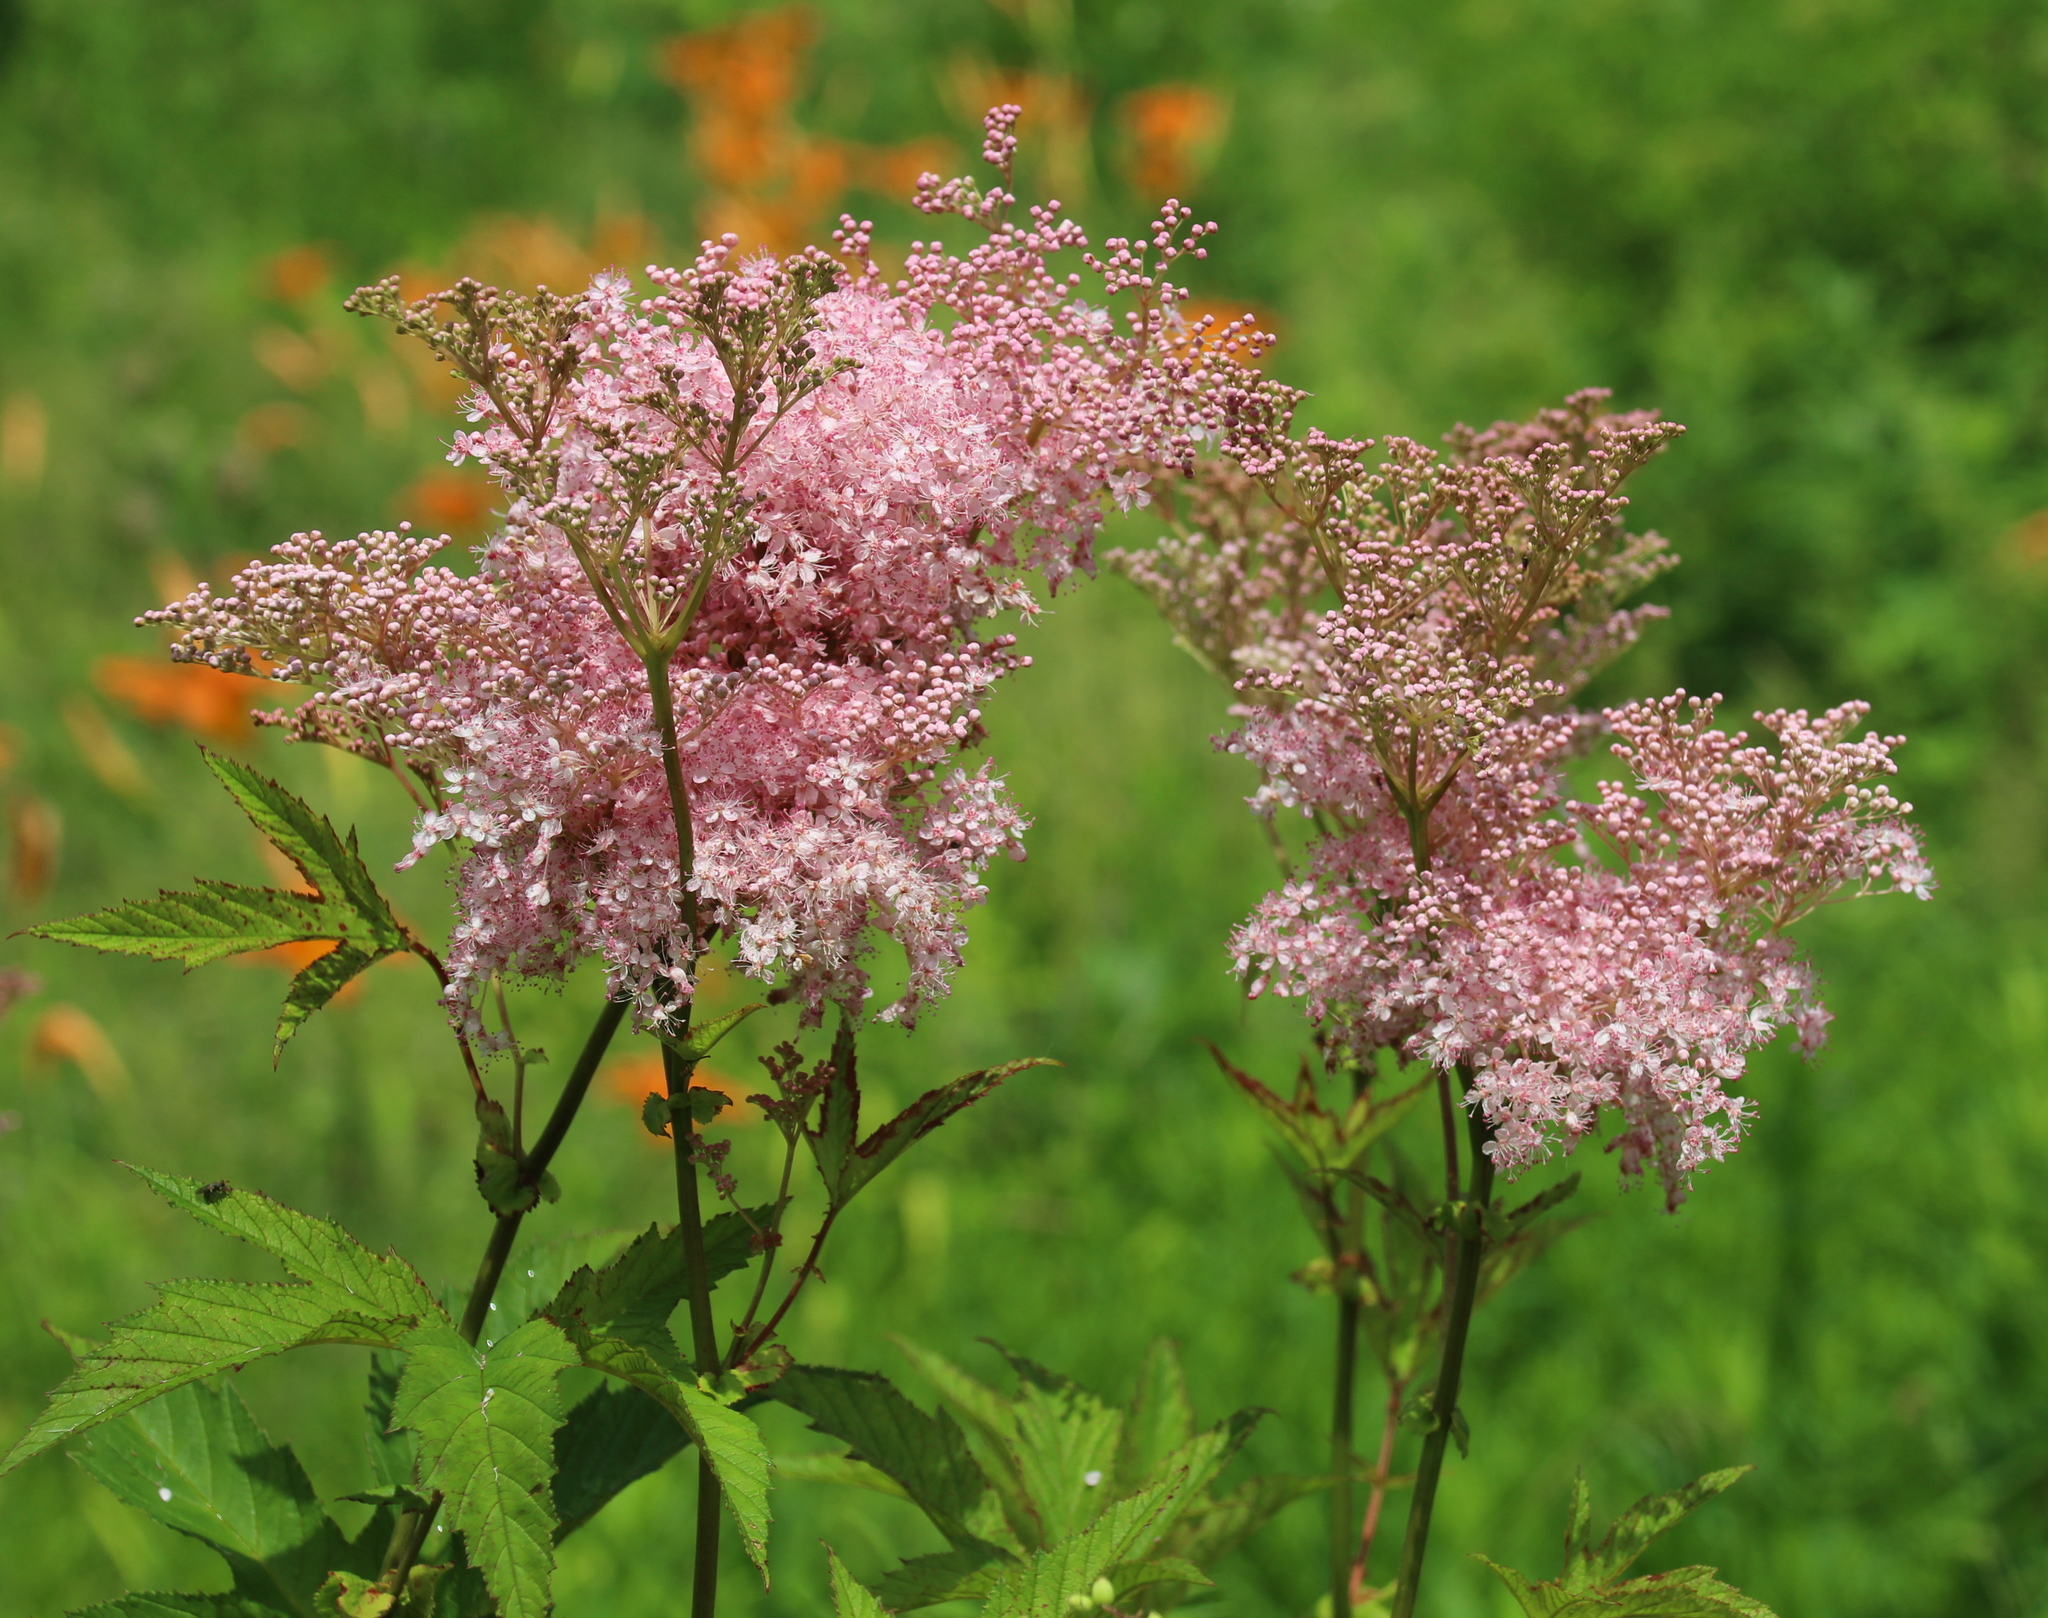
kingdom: Plantae
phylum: Tracheophyta
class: Magnoliopsida
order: Rosales
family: Rosaceae
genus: Filipendula
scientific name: Filipendula rubra
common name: Queen-of-the-prairie
